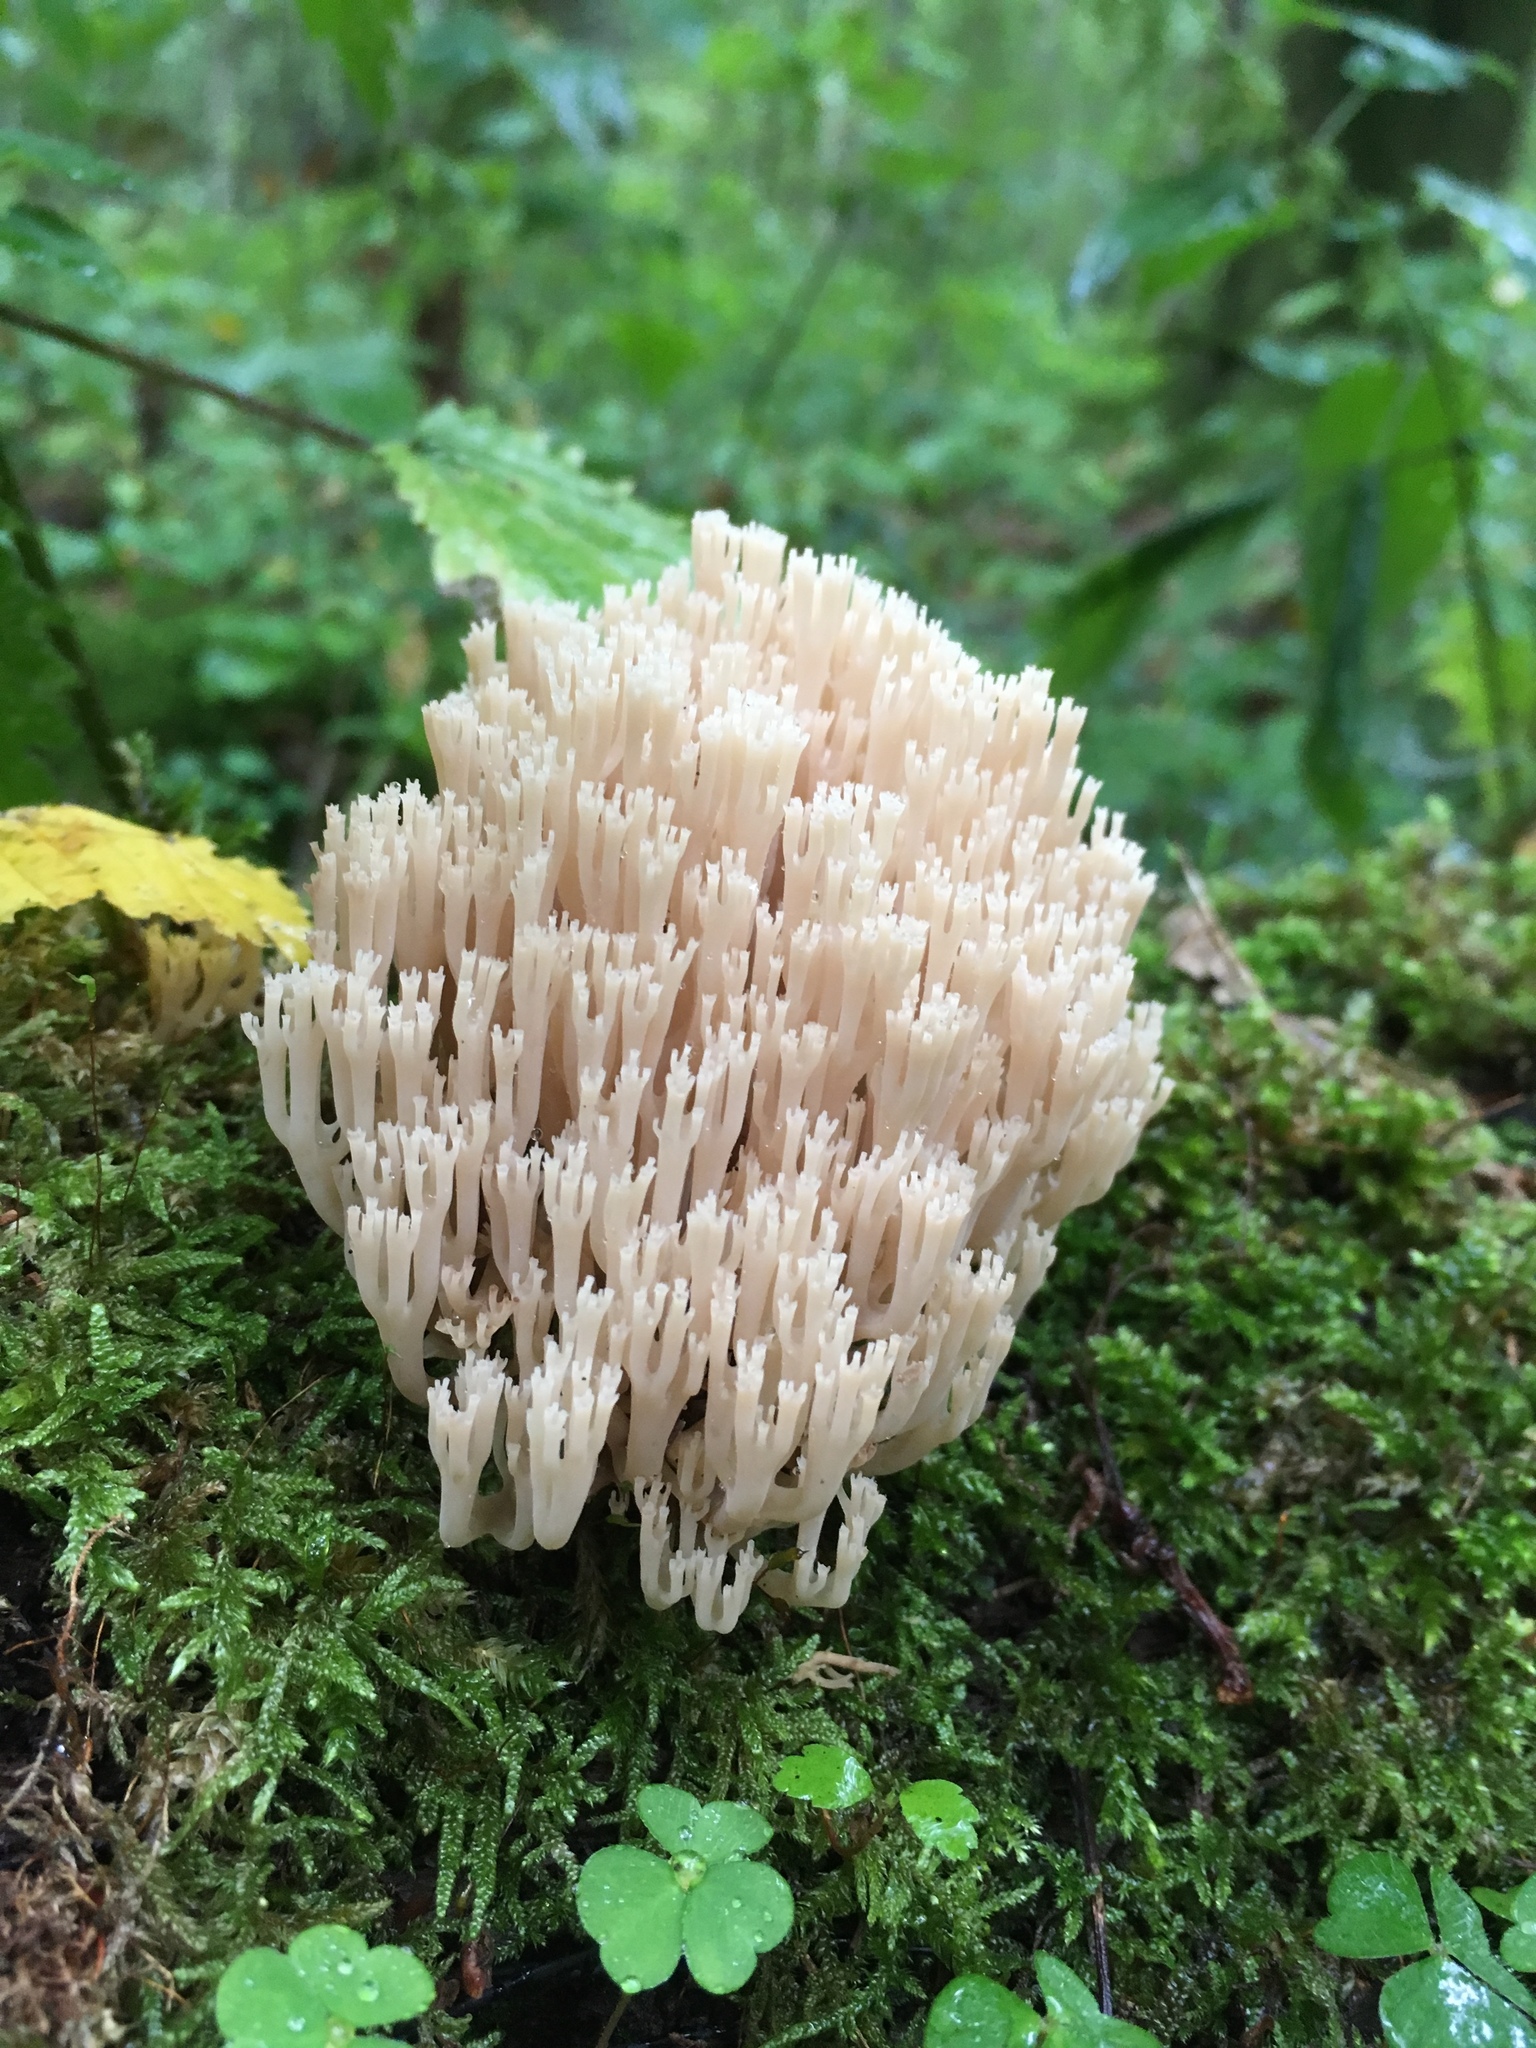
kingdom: Fungi
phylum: Basidiomycota
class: Agaricomycetes
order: Russulales
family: Auriscalpiaceae
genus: Artomyces
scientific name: Artomyces pyxidatus
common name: Crown-tipped coral fungus
